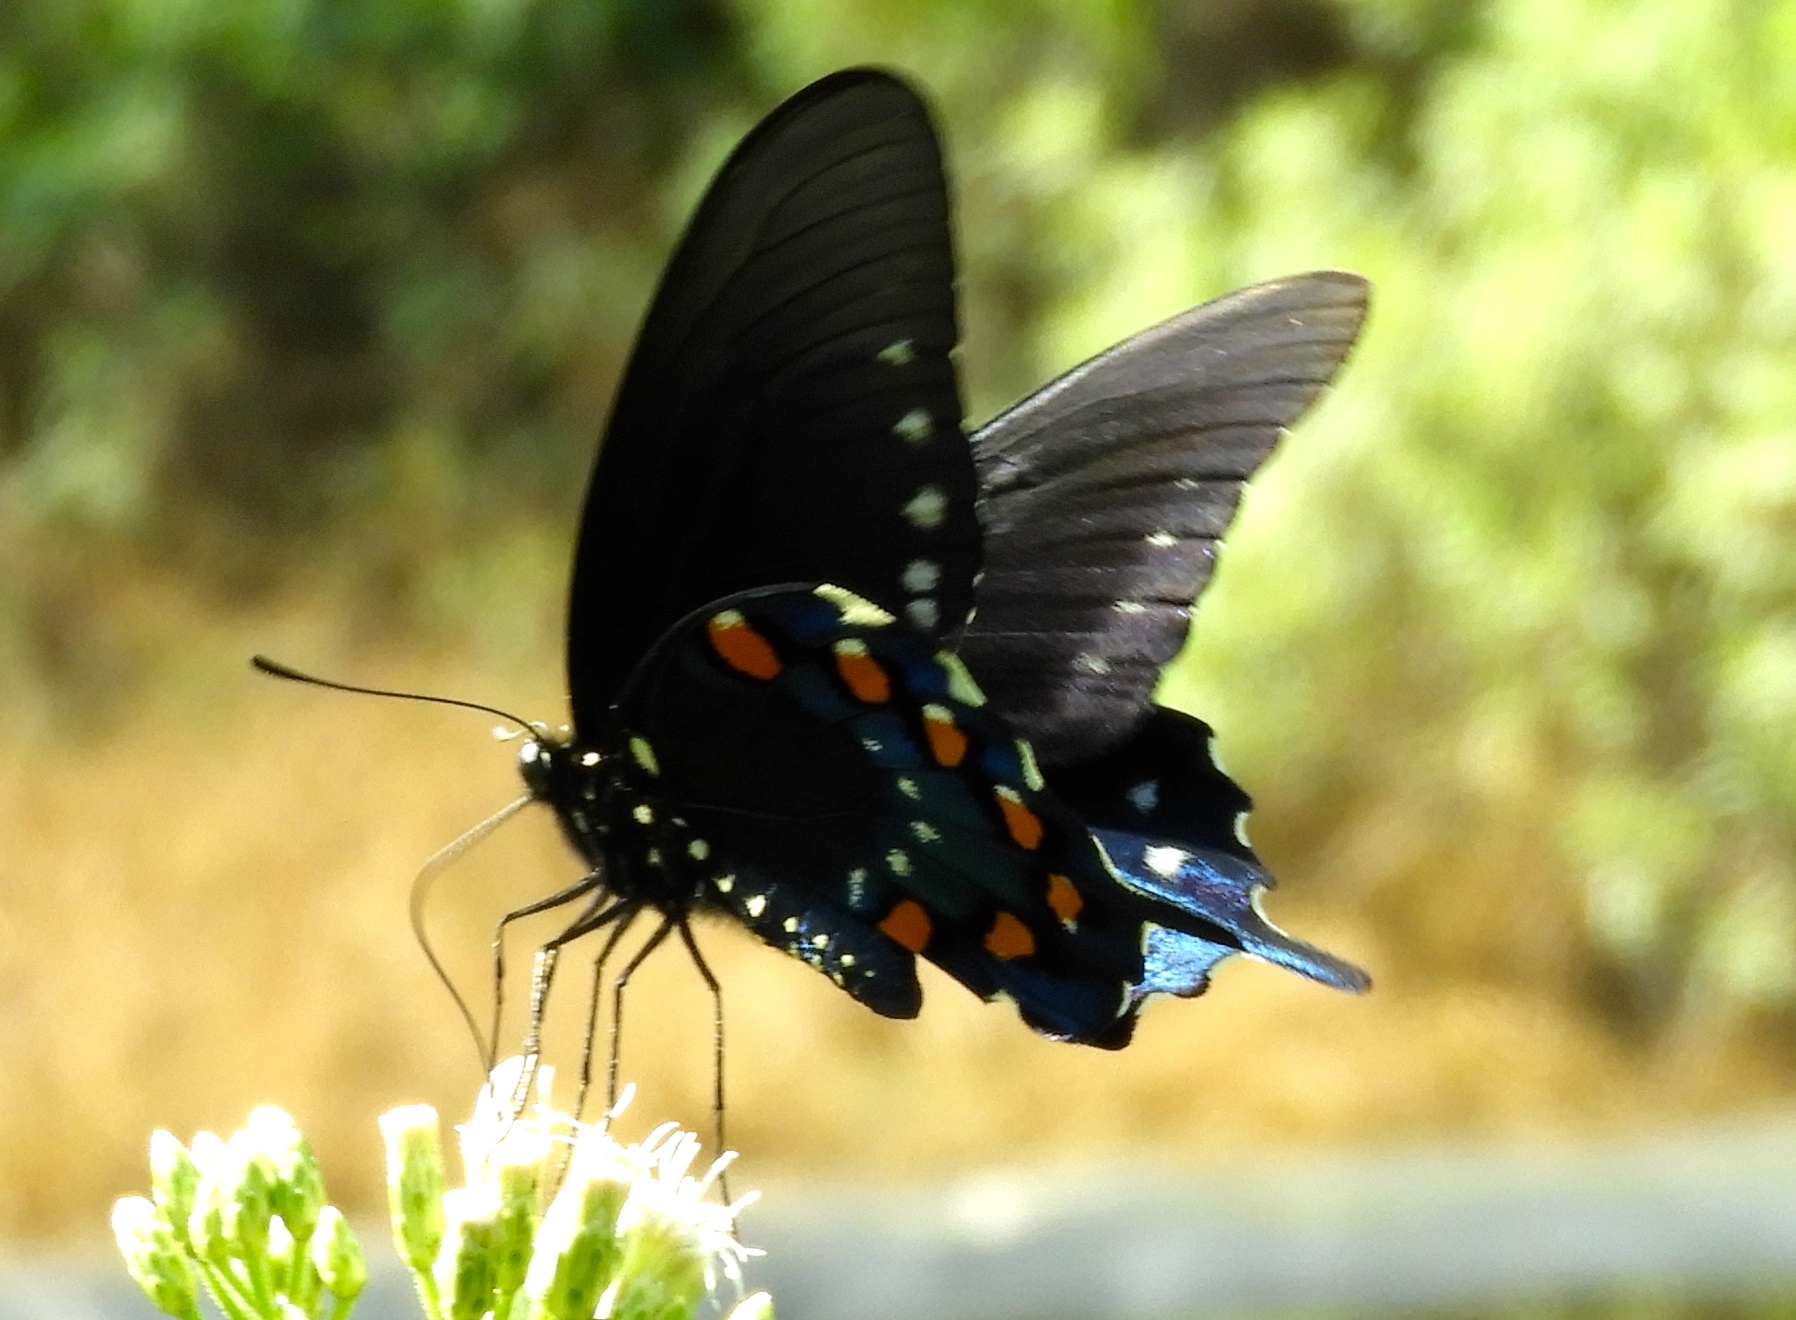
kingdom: Animalia
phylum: Arthropoda
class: Insecta
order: Lepidoptera
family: Papilionidae
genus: Battus
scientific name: Battus philenor
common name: Pipevine swallowtail
